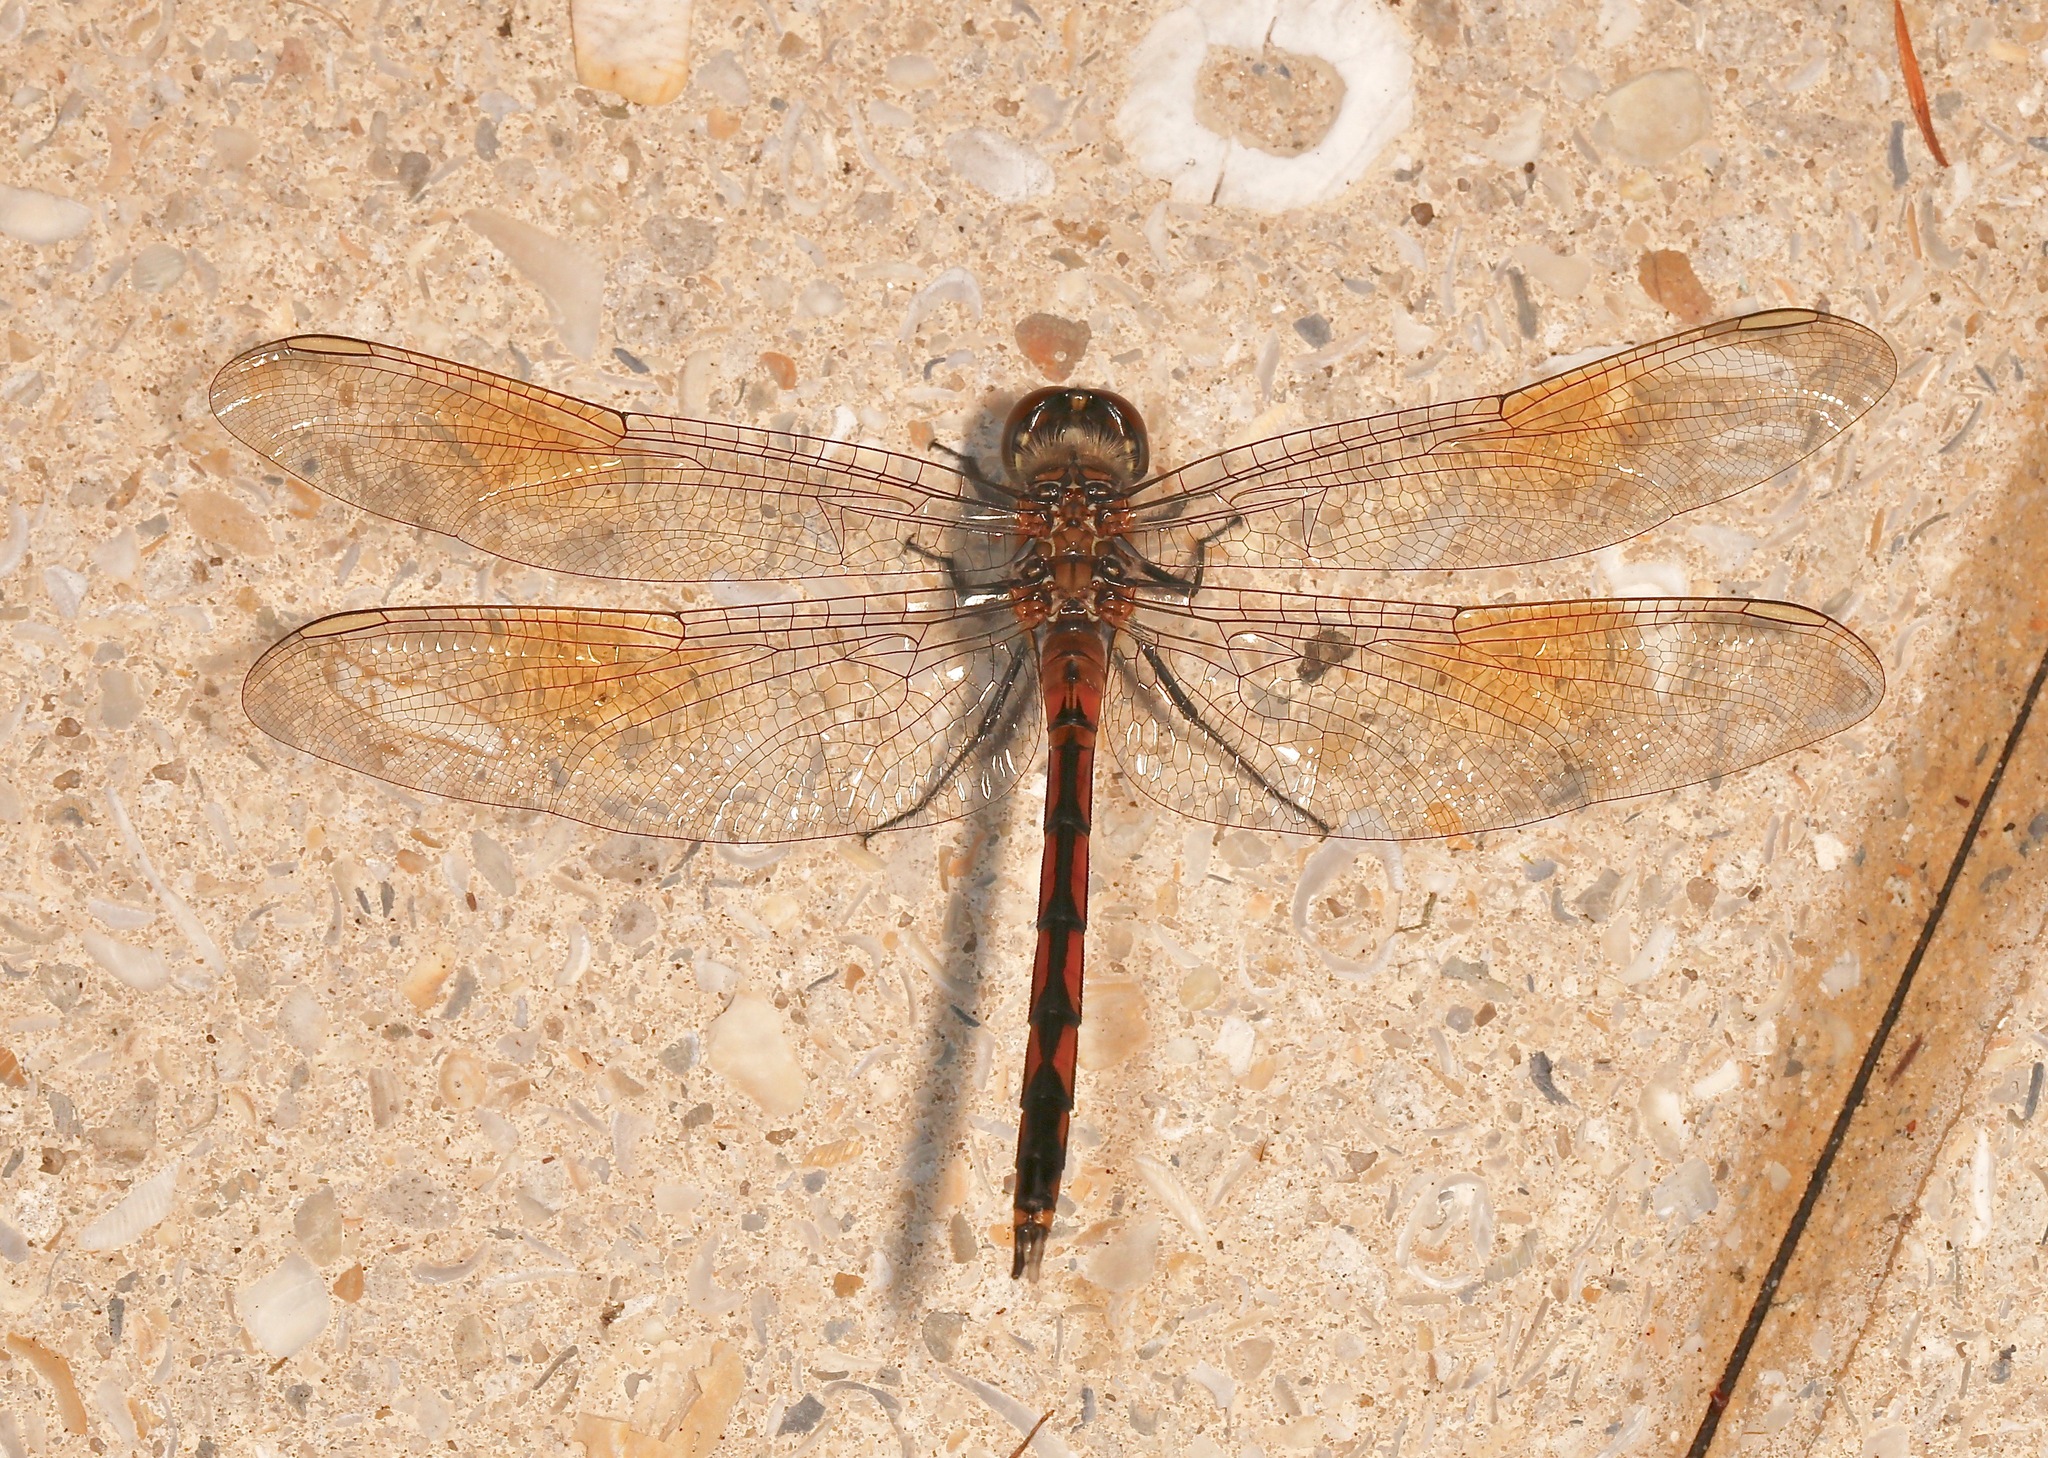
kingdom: Animalia
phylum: Arthropoda
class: Insecta
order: Odonata
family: Libellulidae
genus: Brachymesia
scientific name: Brachymesia gravida
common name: Four-spotted pennant
